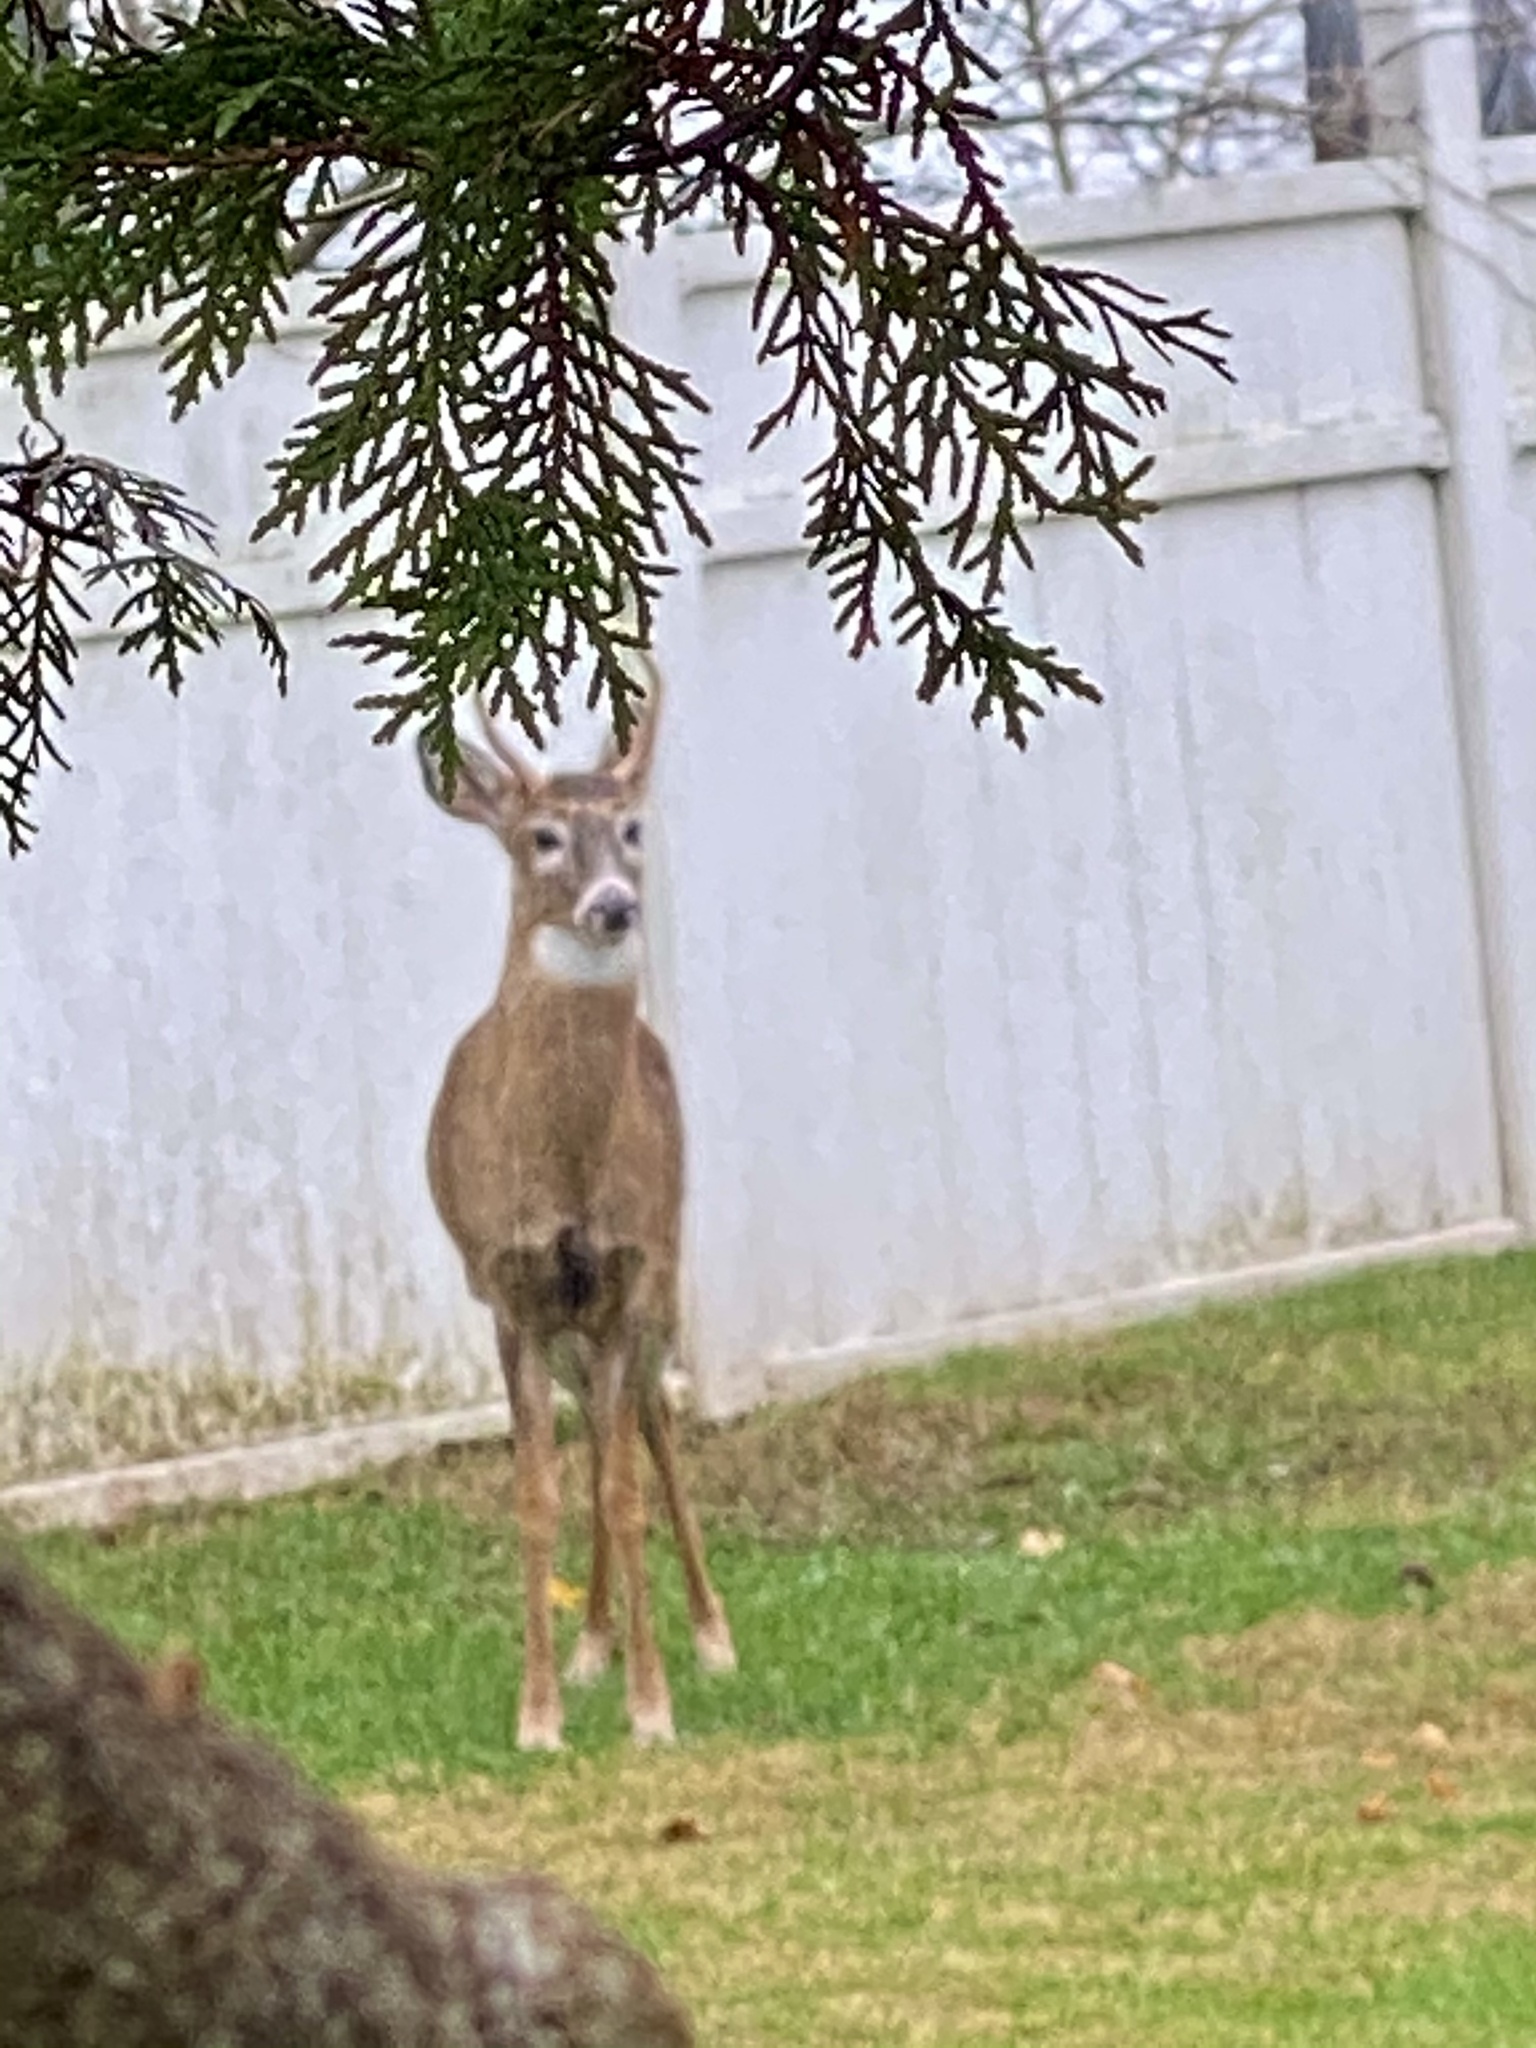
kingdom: Animalia
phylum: Chordata
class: Mammalia
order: Artiodactyla
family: Cervidae
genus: Odocoileus
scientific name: Odocoileus virginianus
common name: White-tailed deer
